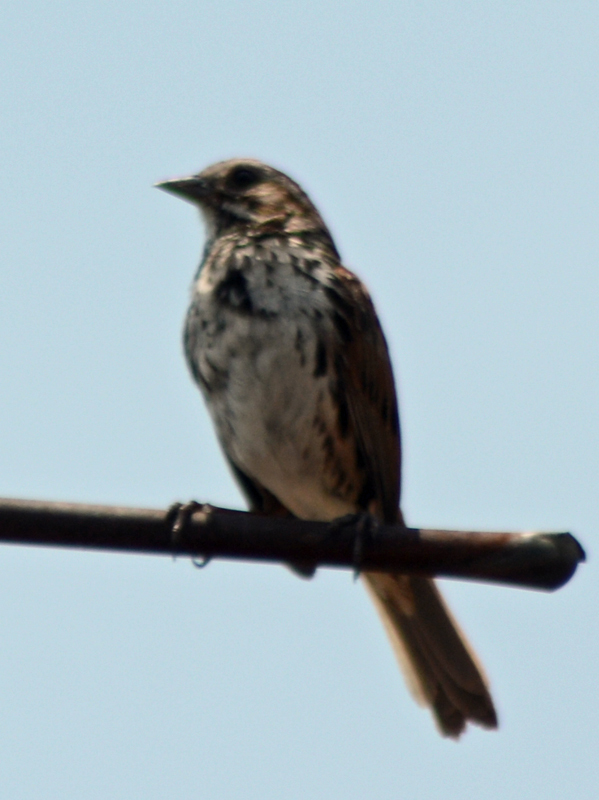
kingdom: Animalia
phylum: Chordata
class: Aves
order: Passeriformes
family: Passerellidae
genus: Melospiza
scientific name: Melospiza melodia
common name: Song sparrow
